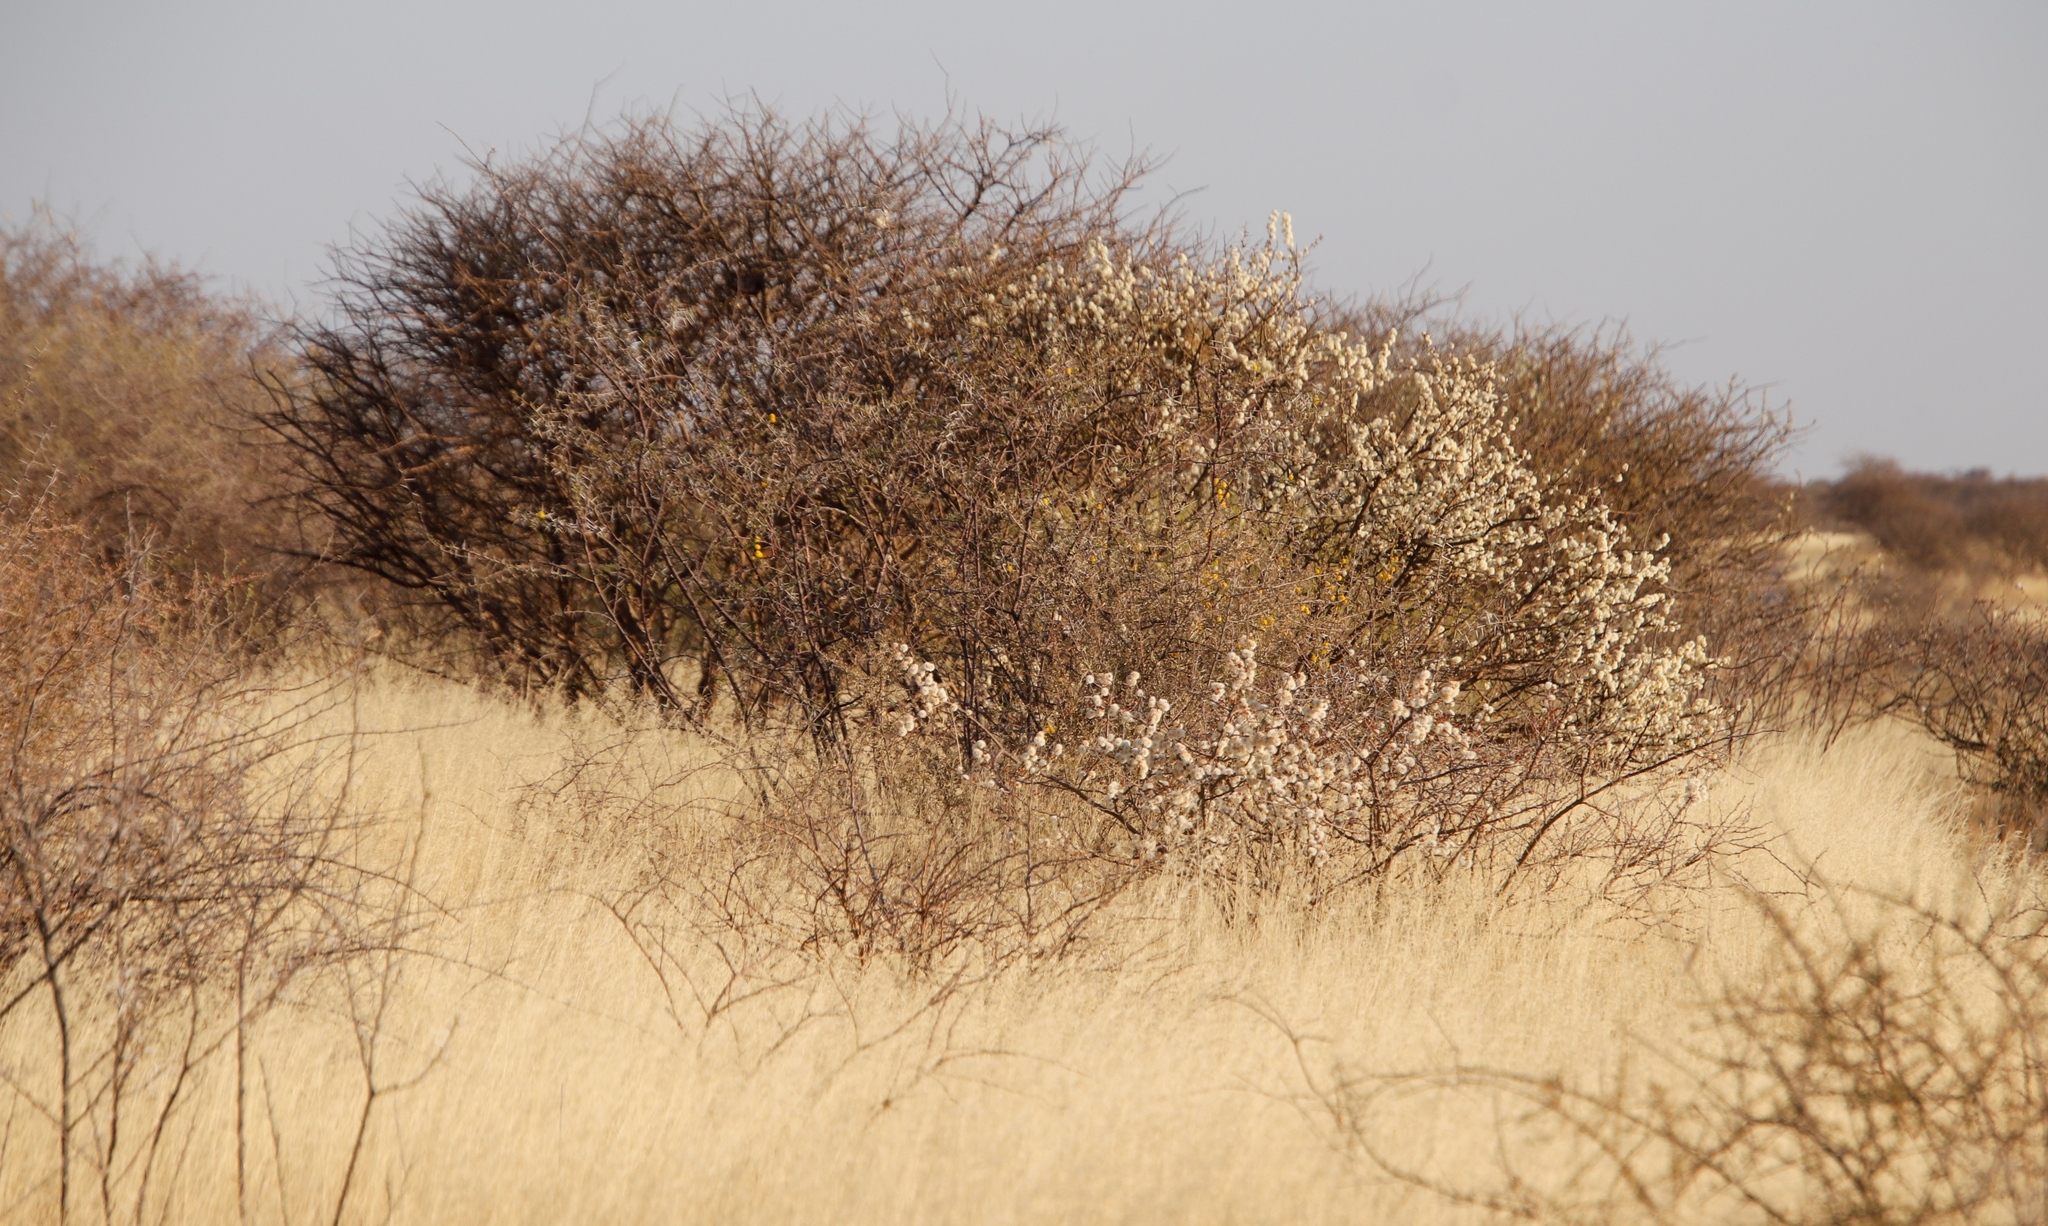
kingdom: Plantae
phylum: Tracheophyta
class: Magnoliopsida
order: Fabales
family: Fabaceae
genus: Senegalia
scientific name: Senegalia mellifera
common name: Hookthorn
